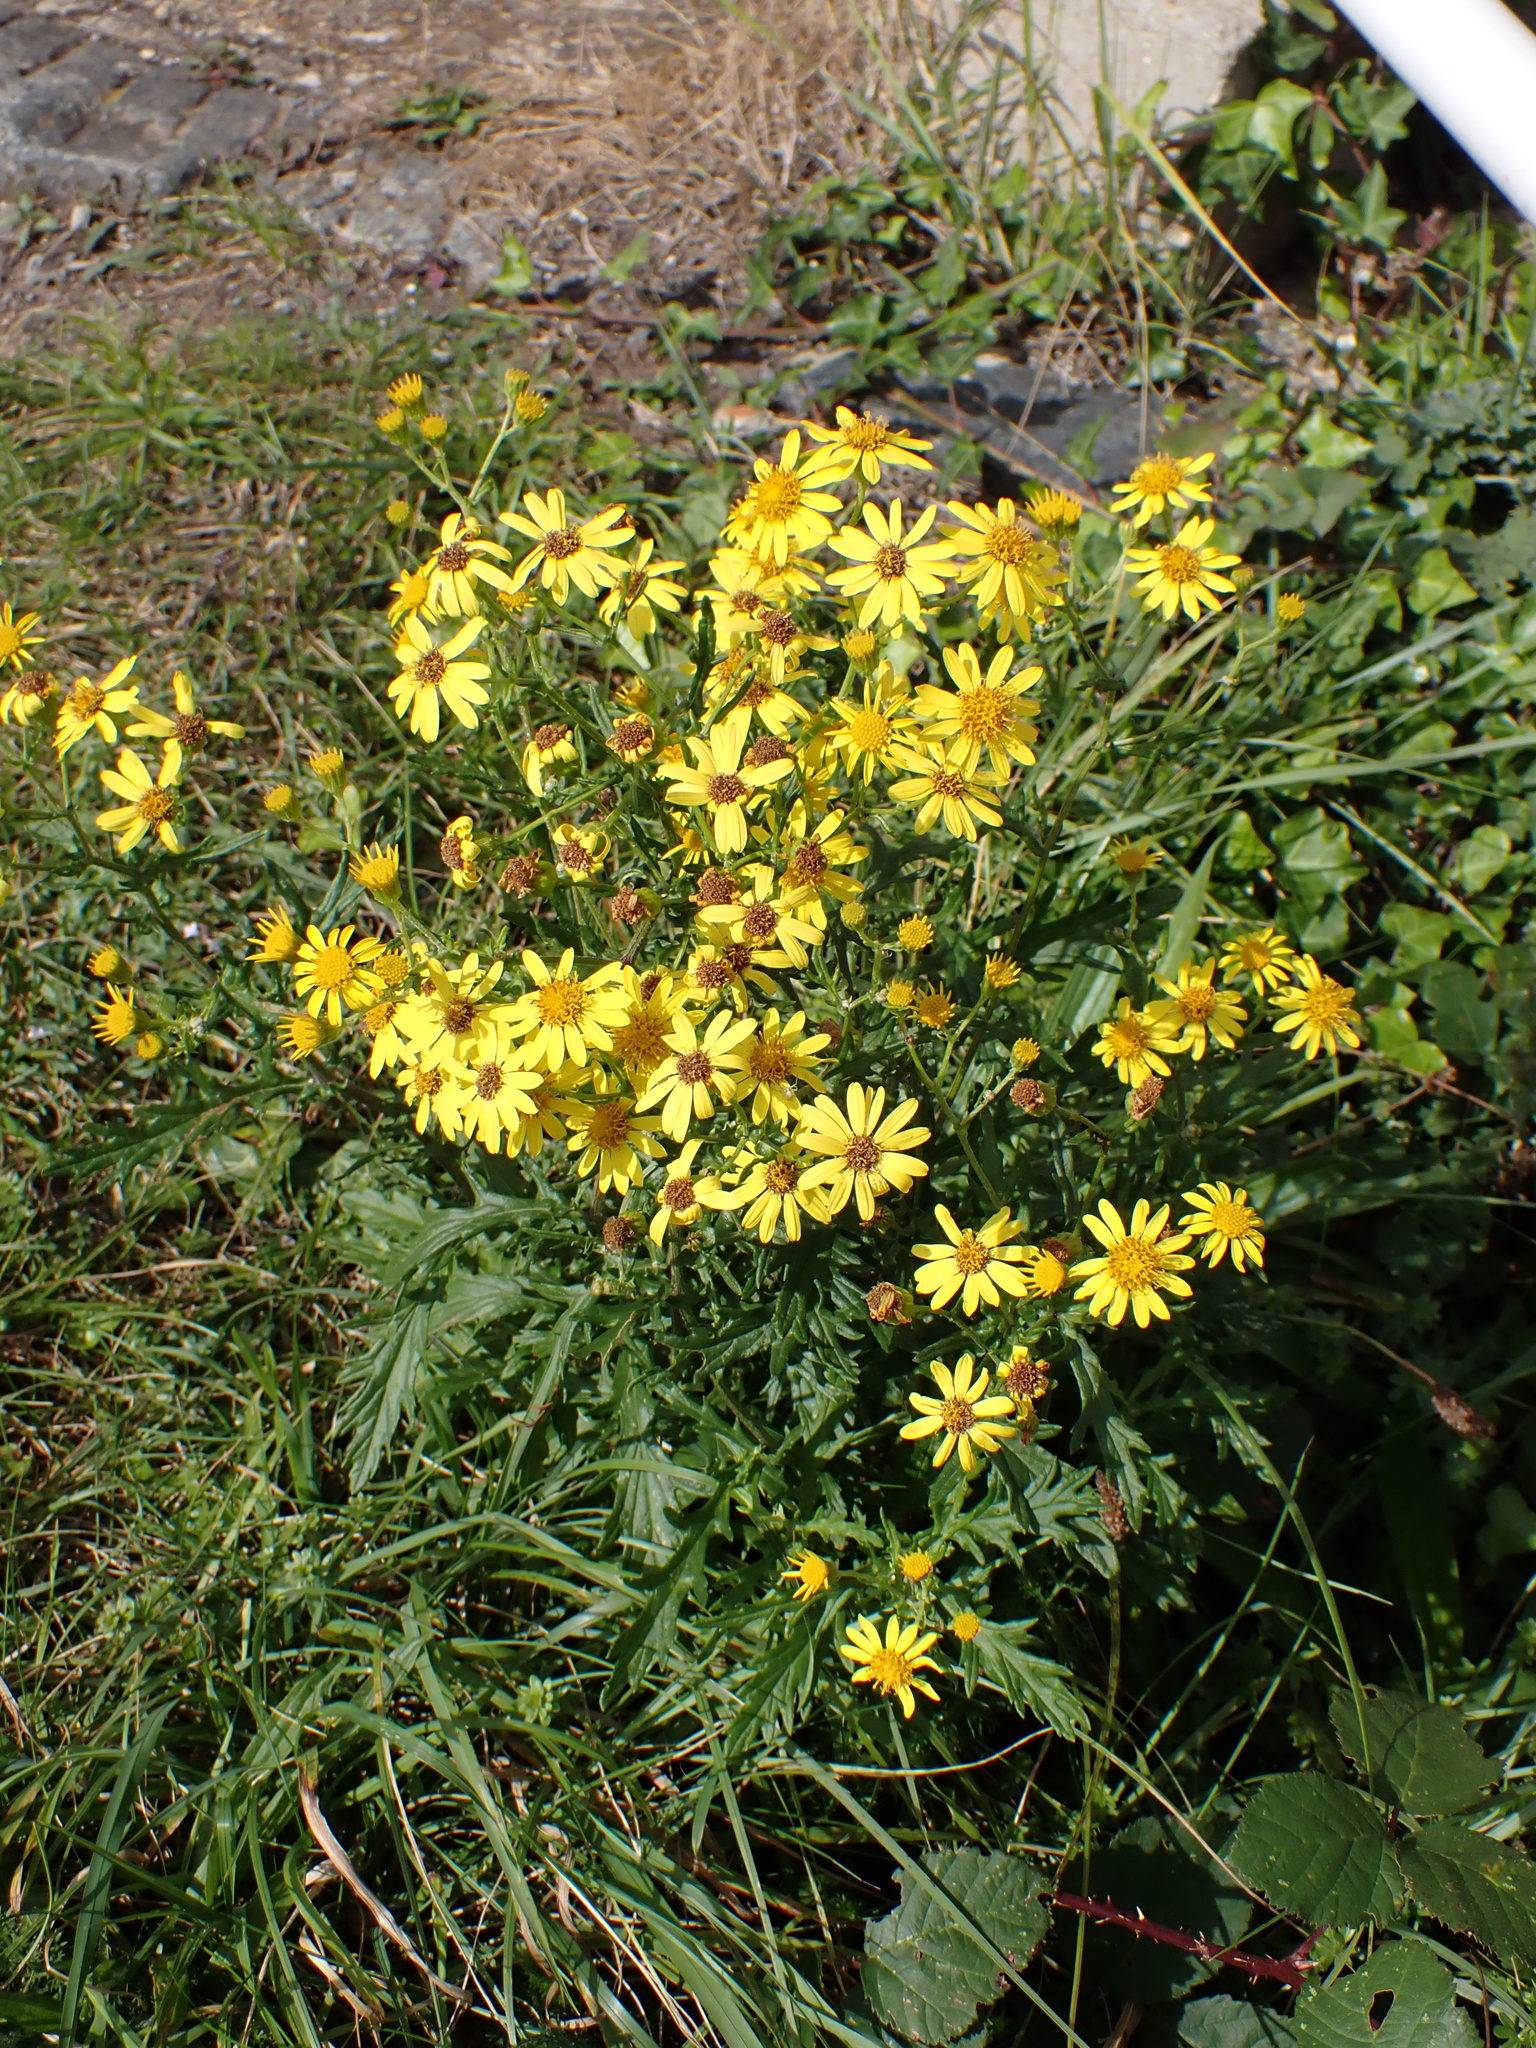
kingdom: Plantae
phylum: Tracheophyta
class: Magnoliopsida
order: Asterales
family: Asteraceae
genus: Senecio
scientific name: Senecio squalidus
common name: Oxford ragwort
